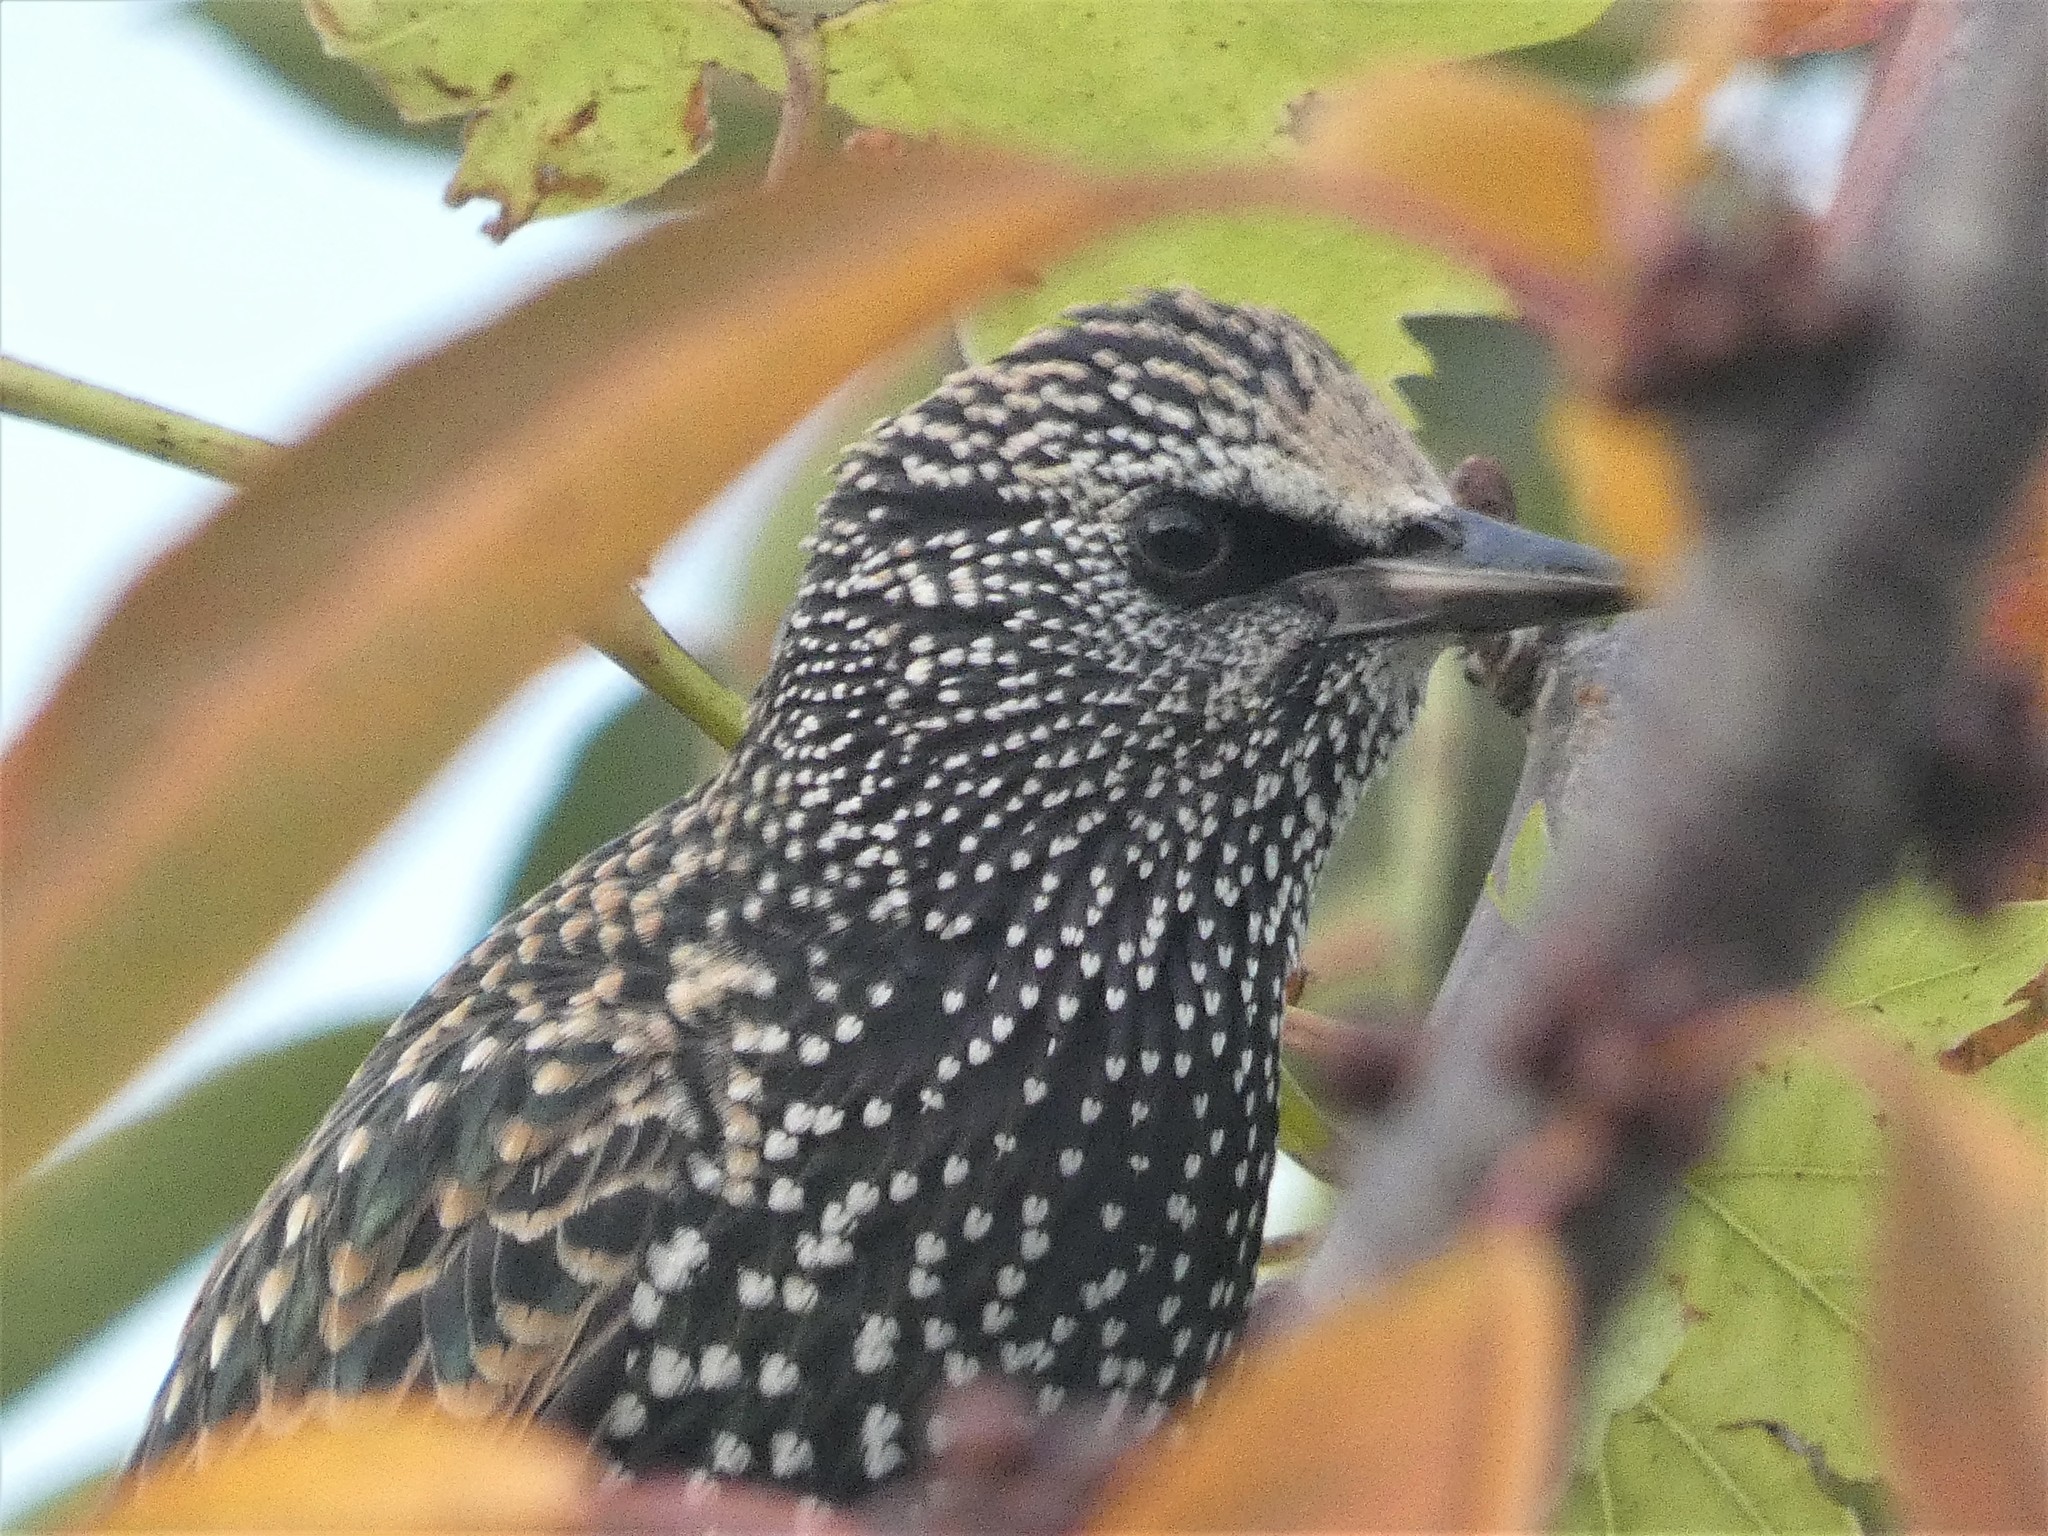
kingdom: Animalia
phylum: Chordata
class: Aves
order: Passeriformes
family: Sturnidae
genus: Sturnus
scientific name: Sturnus vulgaris
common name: Common starling
